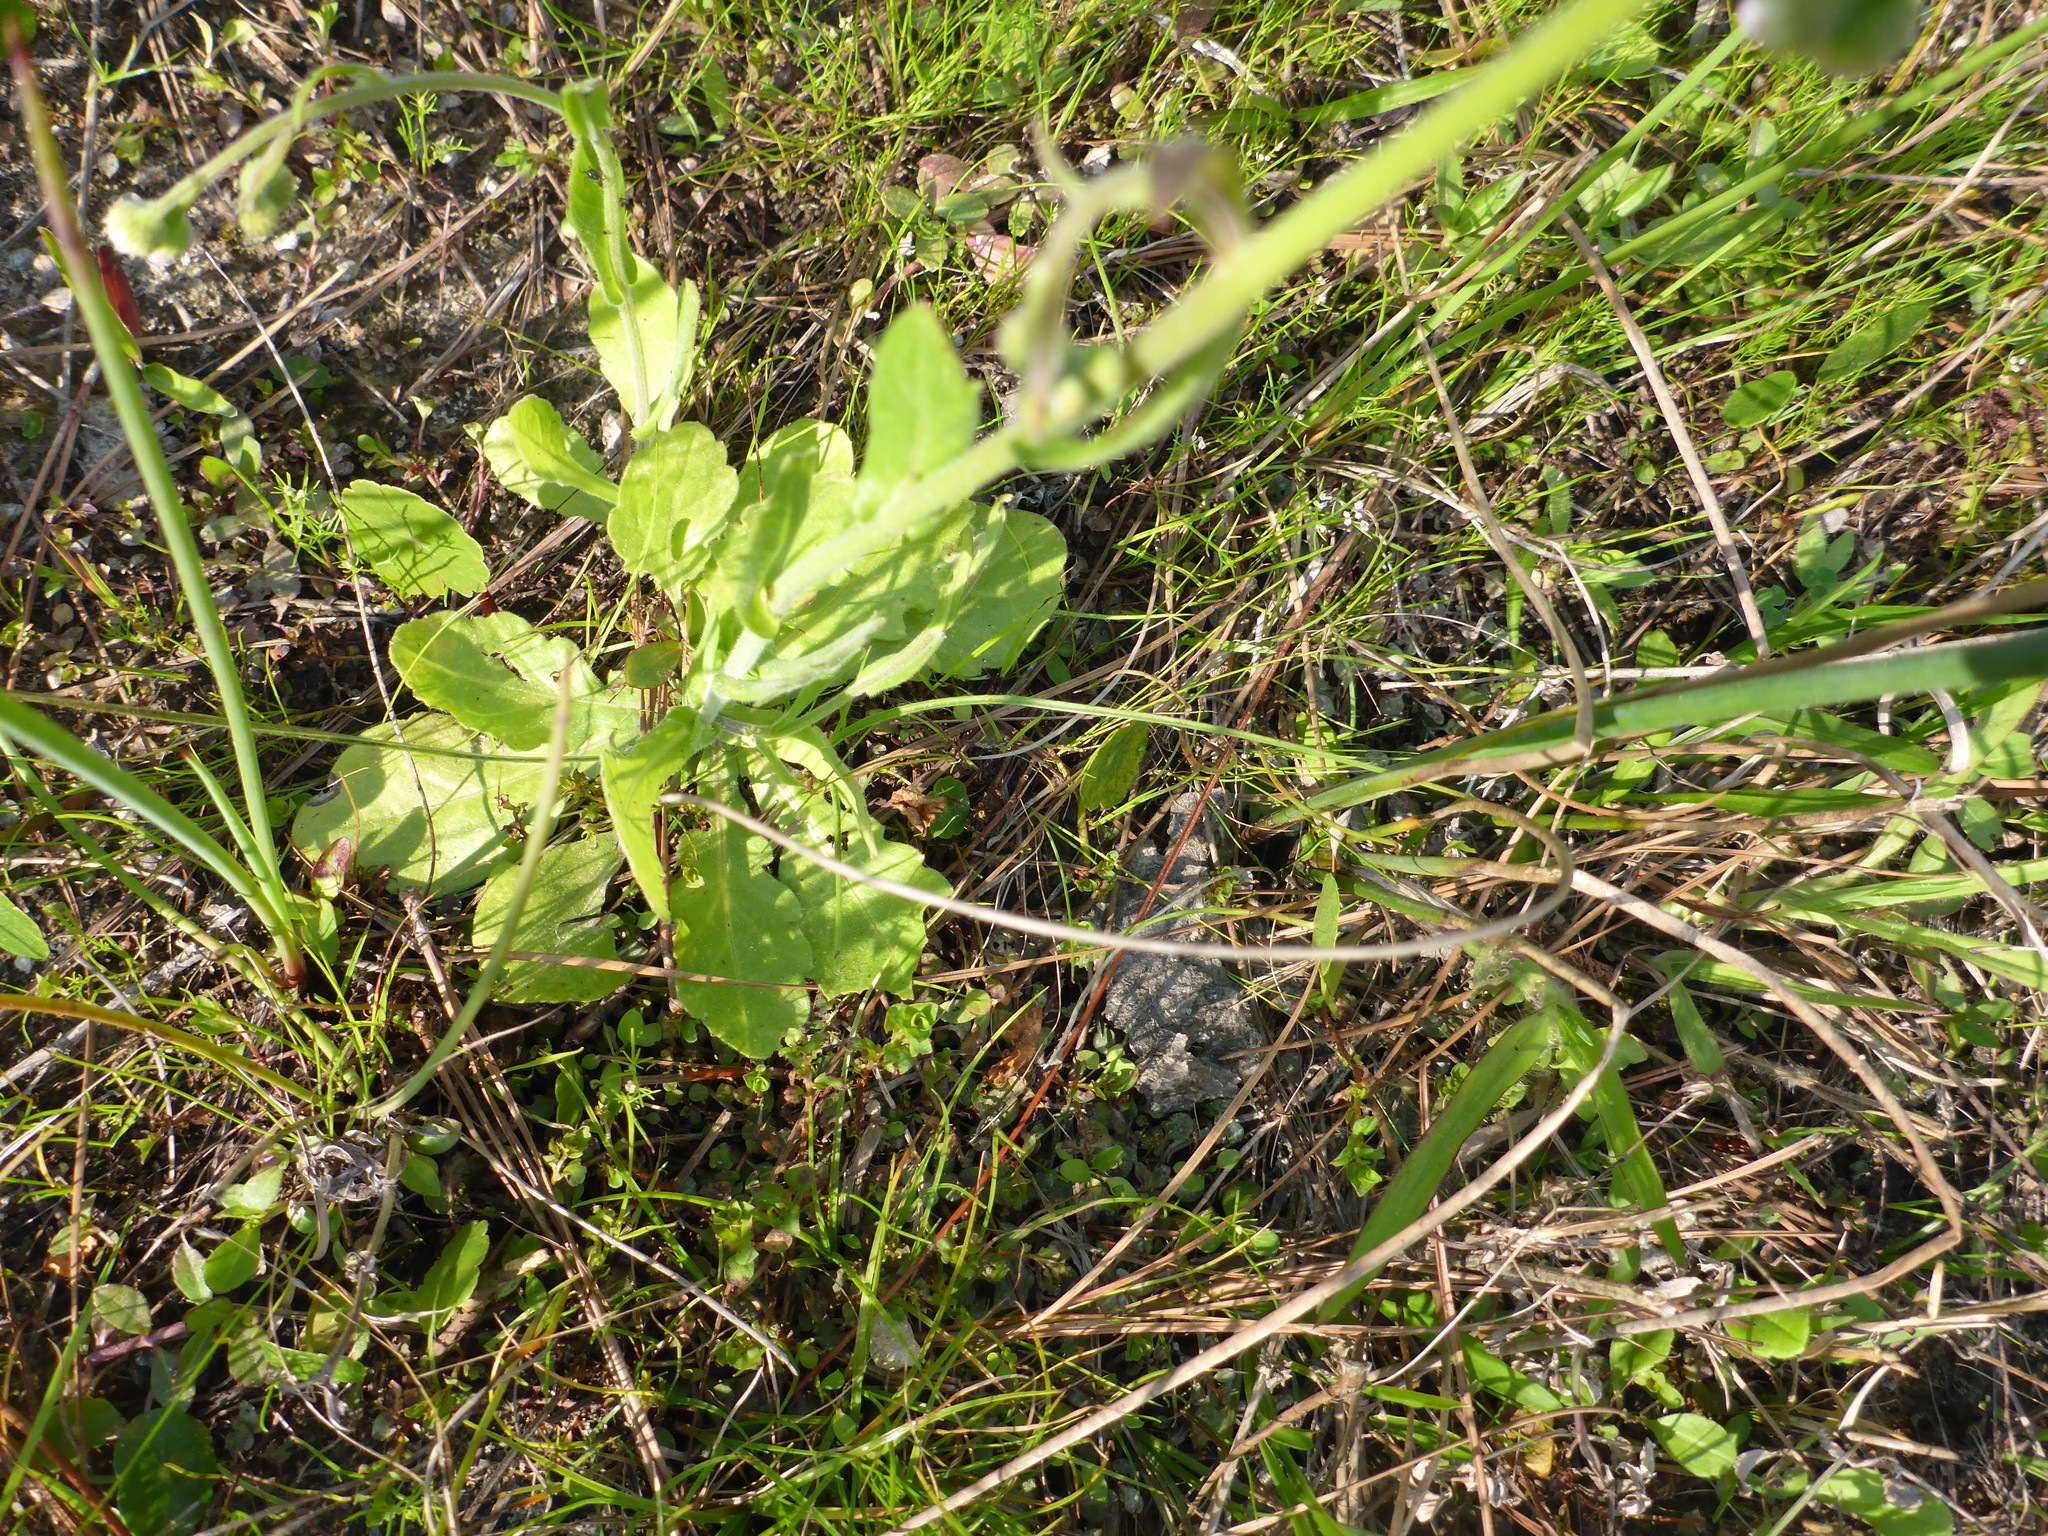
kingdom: Plantae
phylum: Tracheophyta
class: Magnoliopsida
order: Asterales
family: Asteraceae
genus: Erigeron
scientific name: Erigeron quercifolius
